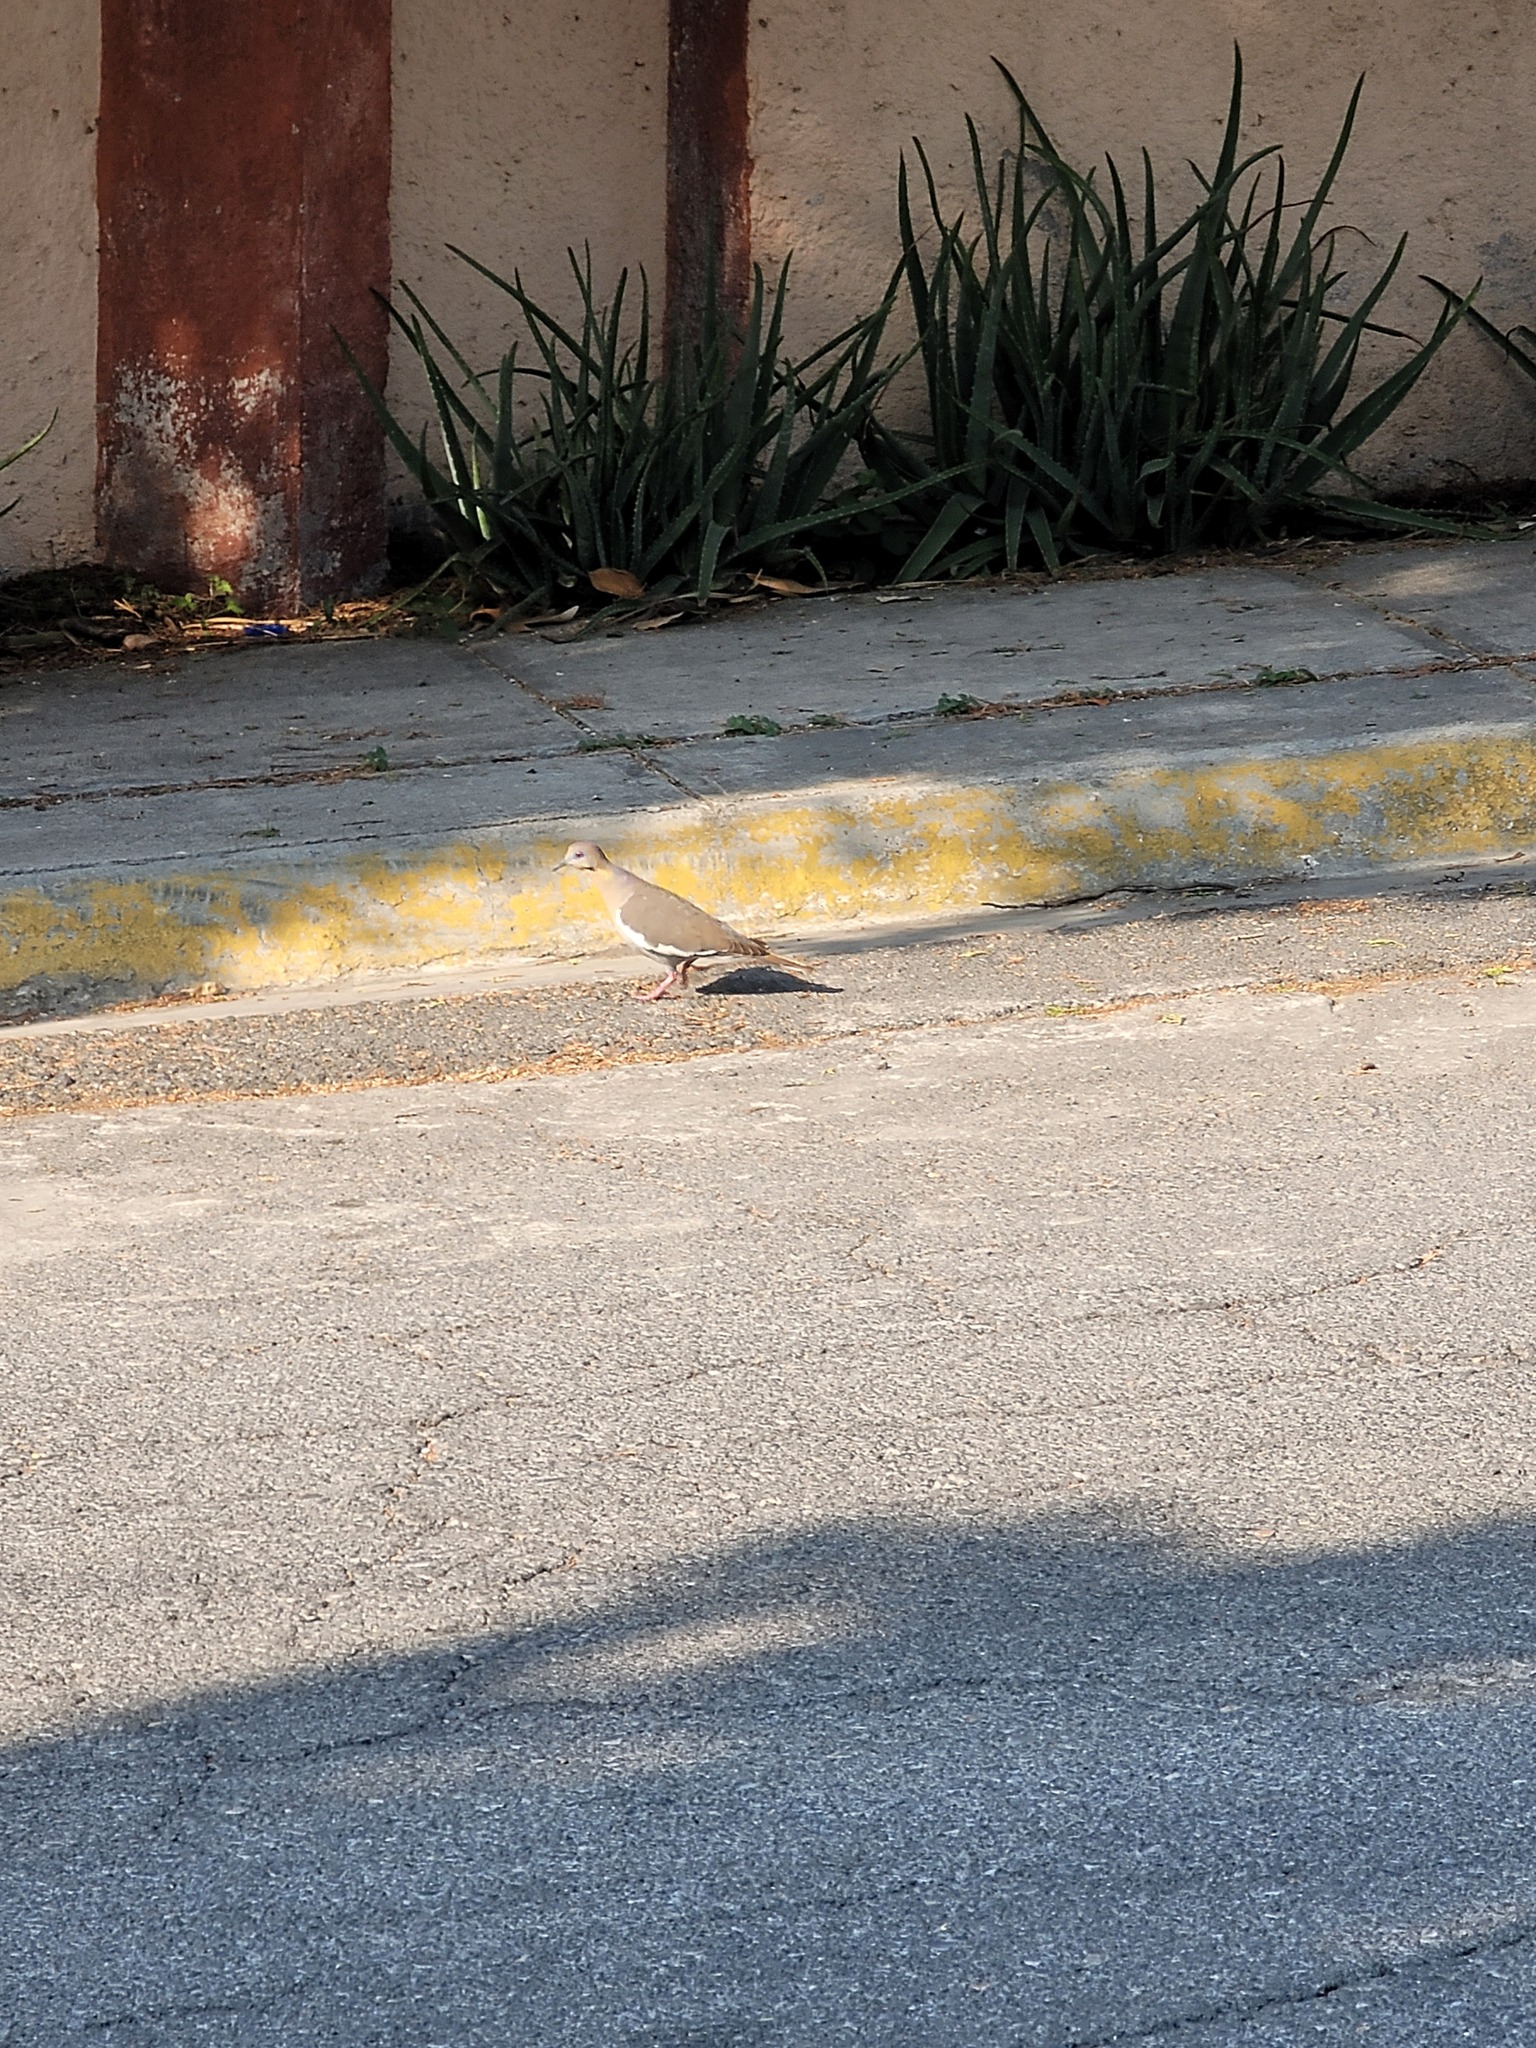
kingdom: Animalia
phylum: Chordata
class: Aves
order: Columbiformes
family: Columbidae
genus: Zenaida
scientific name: Zenaida asiatica
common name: White-winged dove
